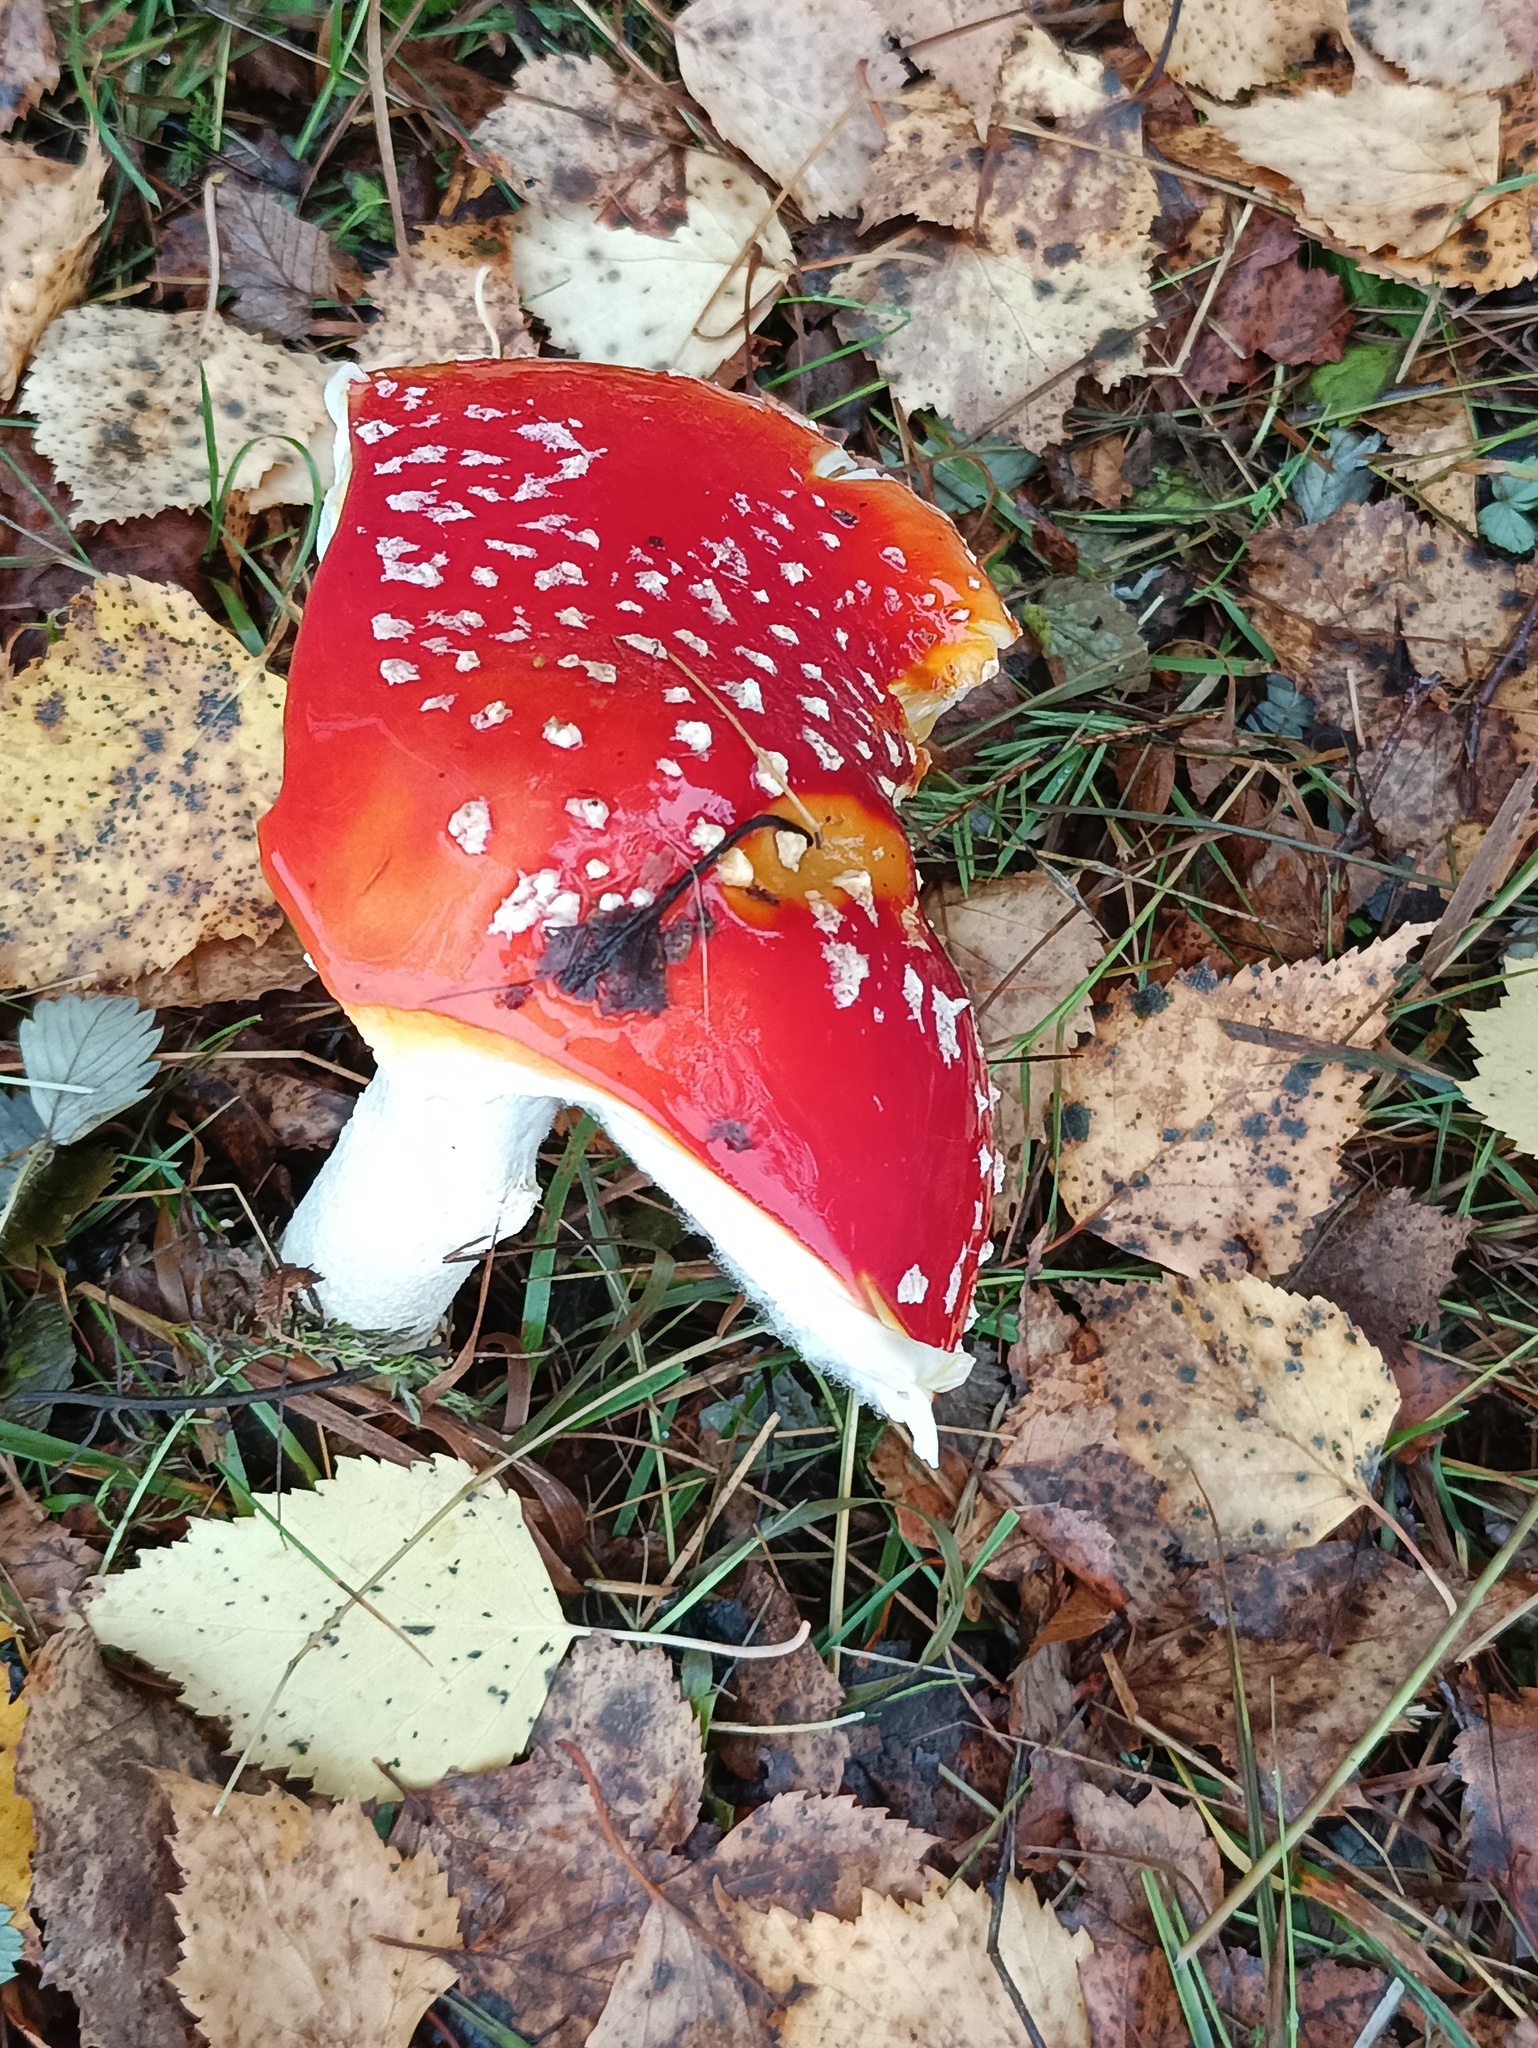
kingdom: Fungi
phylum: Basidiomycota
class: Agaricomycetes
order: Agaricales
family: Amanitaceae
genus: Amanita
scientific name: Amanita muscaria
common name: Fly agaric
